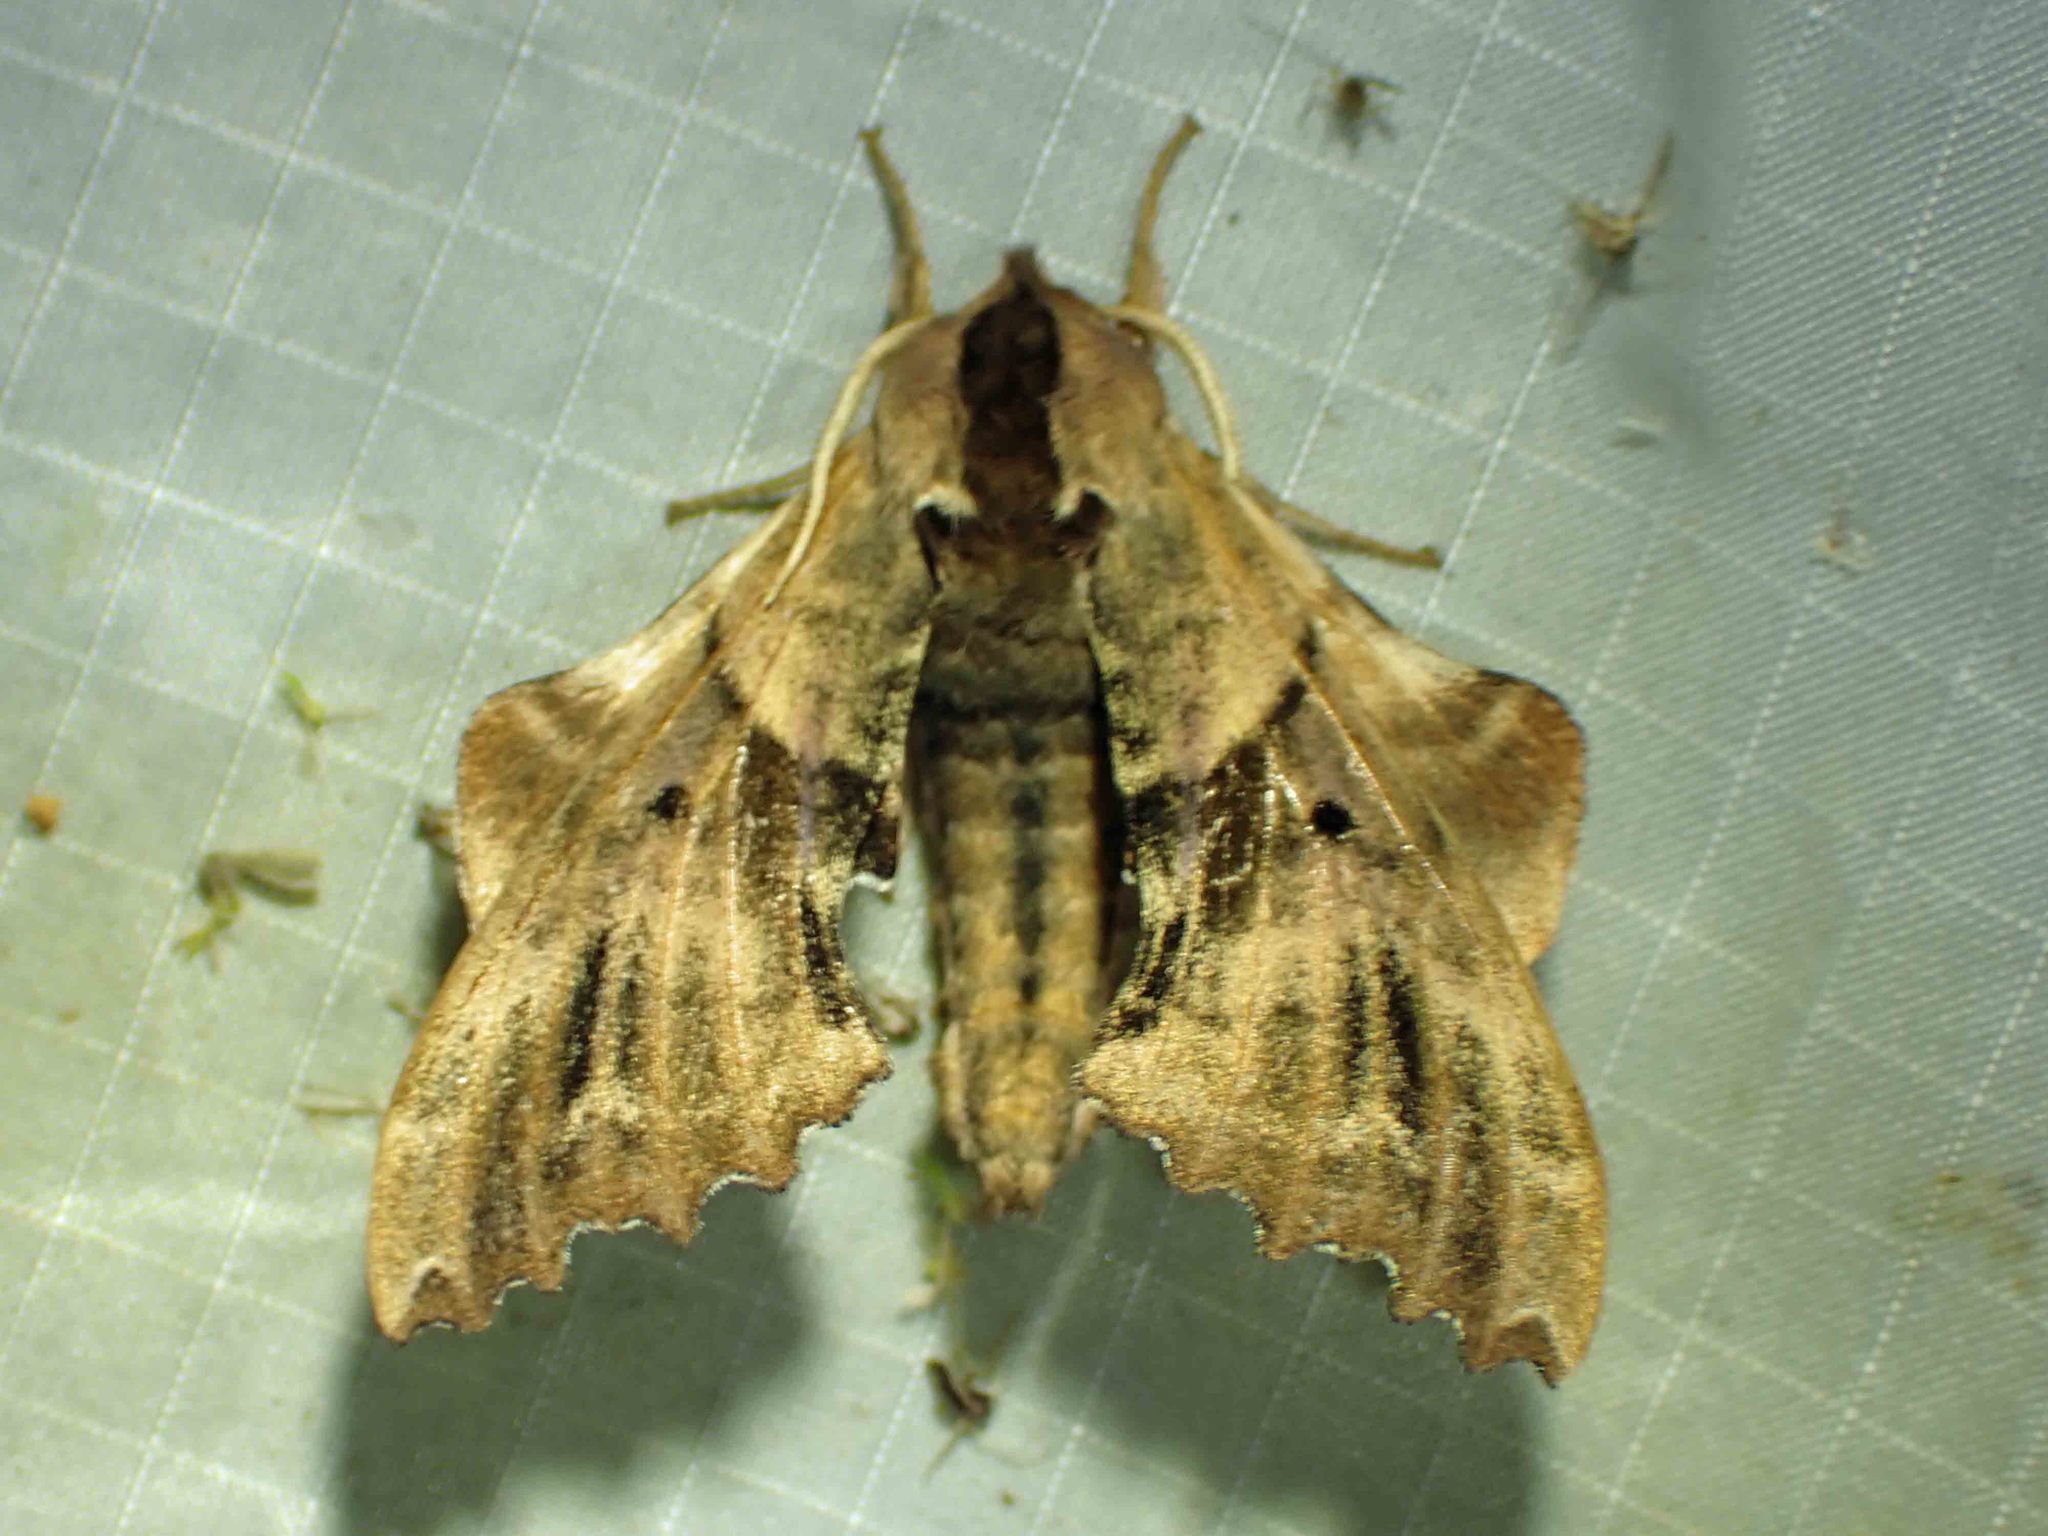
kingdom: Animalia
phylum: Arthropoda
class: Insecta
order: Lepidoptera
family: Sphingidae
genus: Paonias
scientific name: Paonias excaecata
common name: Blind-eyed sphinx
